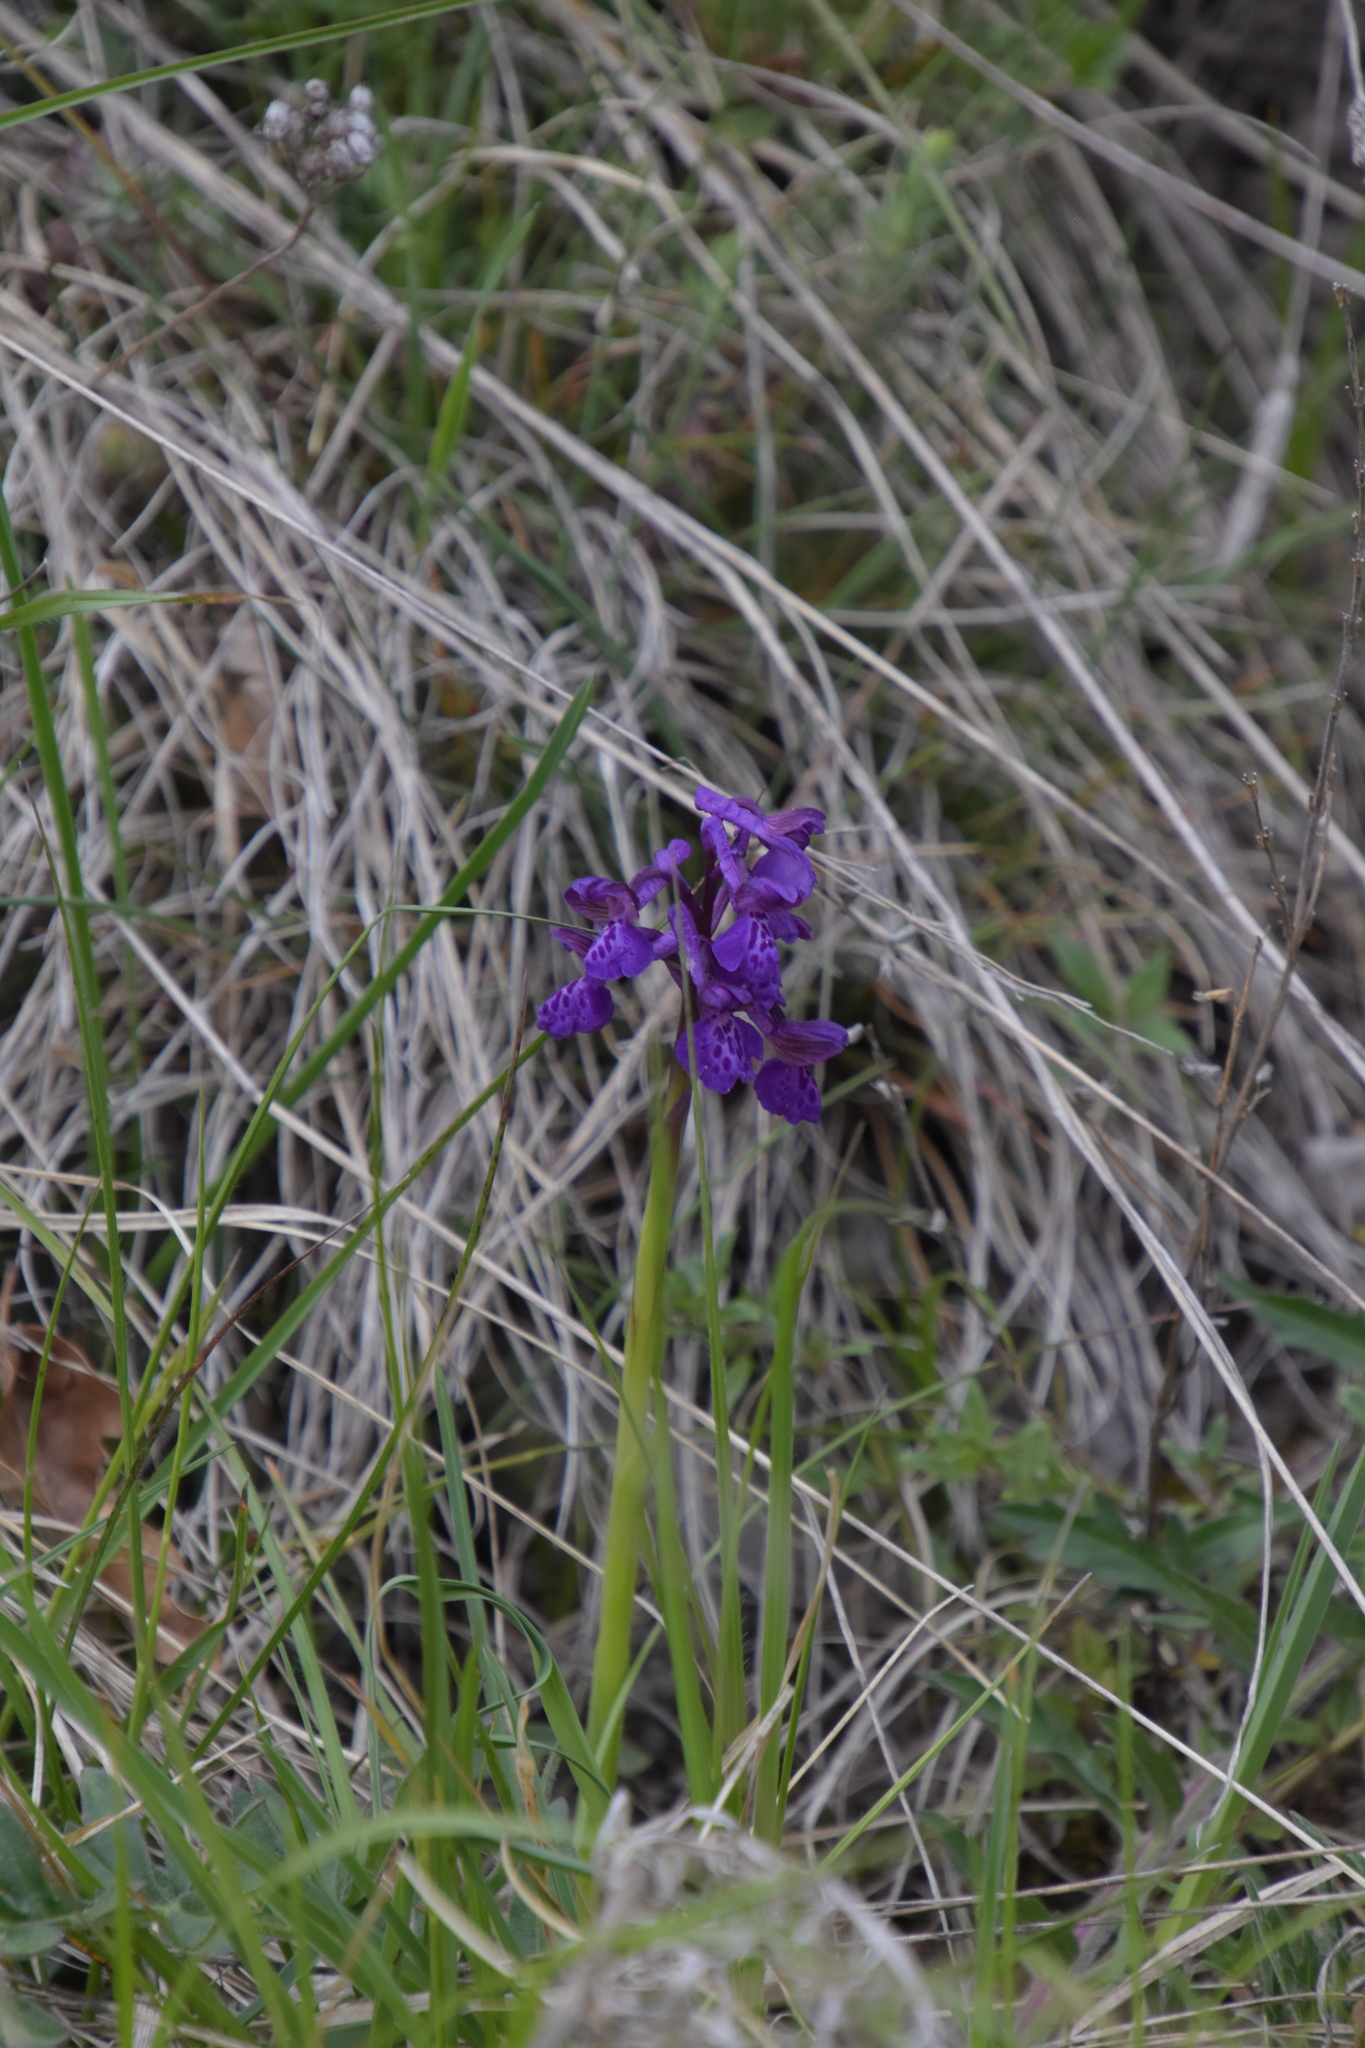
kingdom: Plantae
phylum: Tracheophyta
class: Liliopsida
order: Asparagales
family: Orchidaceae
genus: Anacamptis
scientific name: Anacamptis morio
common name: Green-winged orchid
